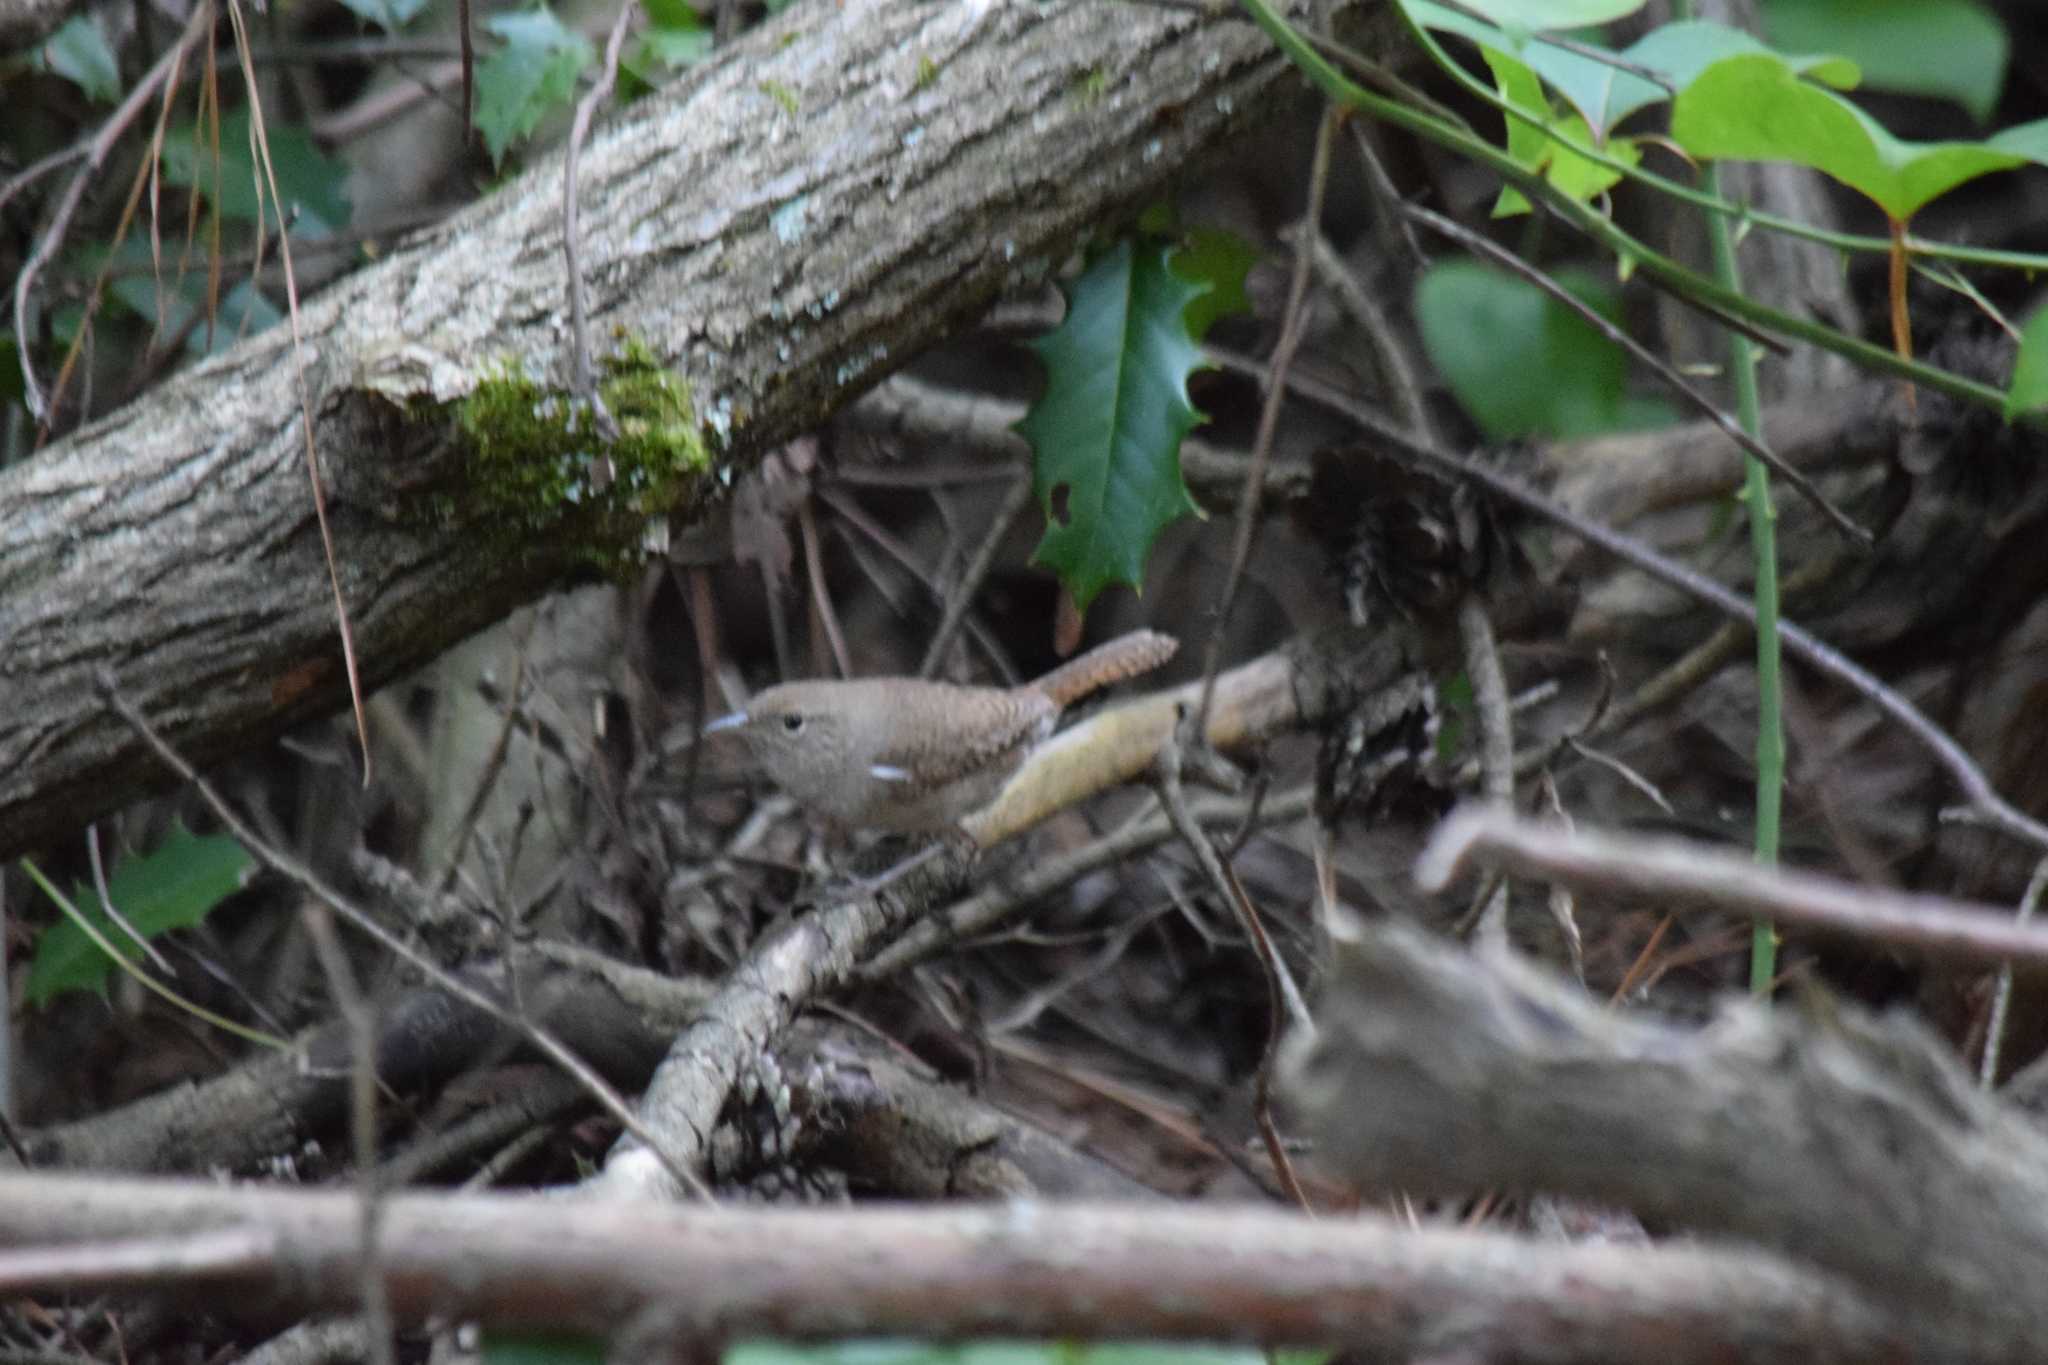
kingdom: Animalia
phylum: Chordata
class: Aves
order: Passeriformes
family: Troglodytidae
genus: Troglodytes
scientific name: Troglodytes aedon
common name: House wren
